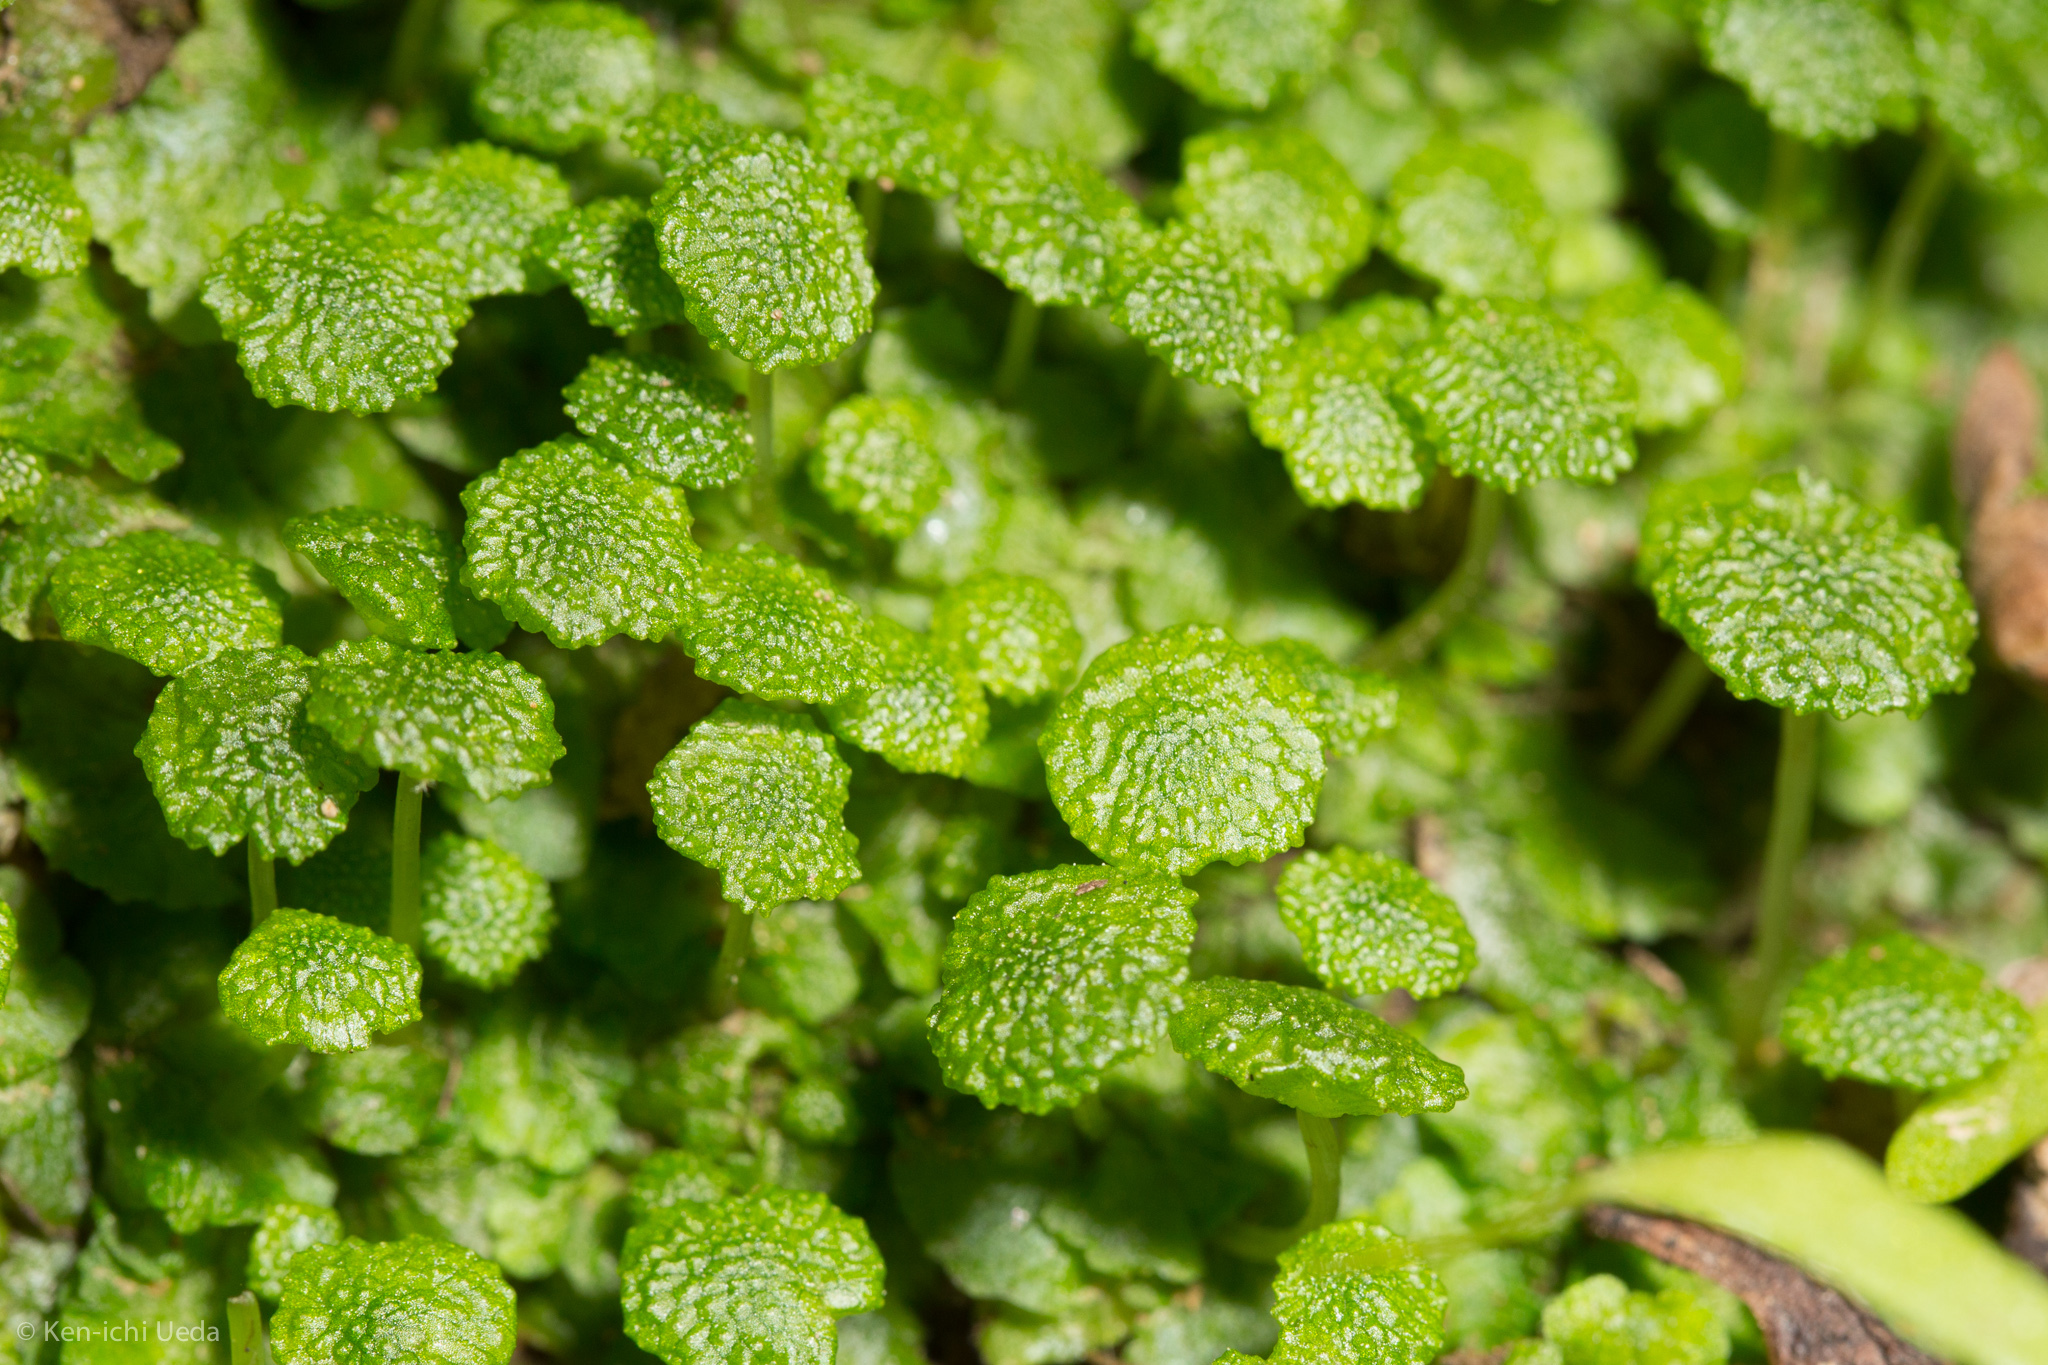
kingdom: Plantae
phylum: Marchantiophyta
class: Marchantiopsida
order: Marchantiales
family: Aytoniaceae
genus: Cryptomitrium
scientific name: Cryptomitrium tenerum
